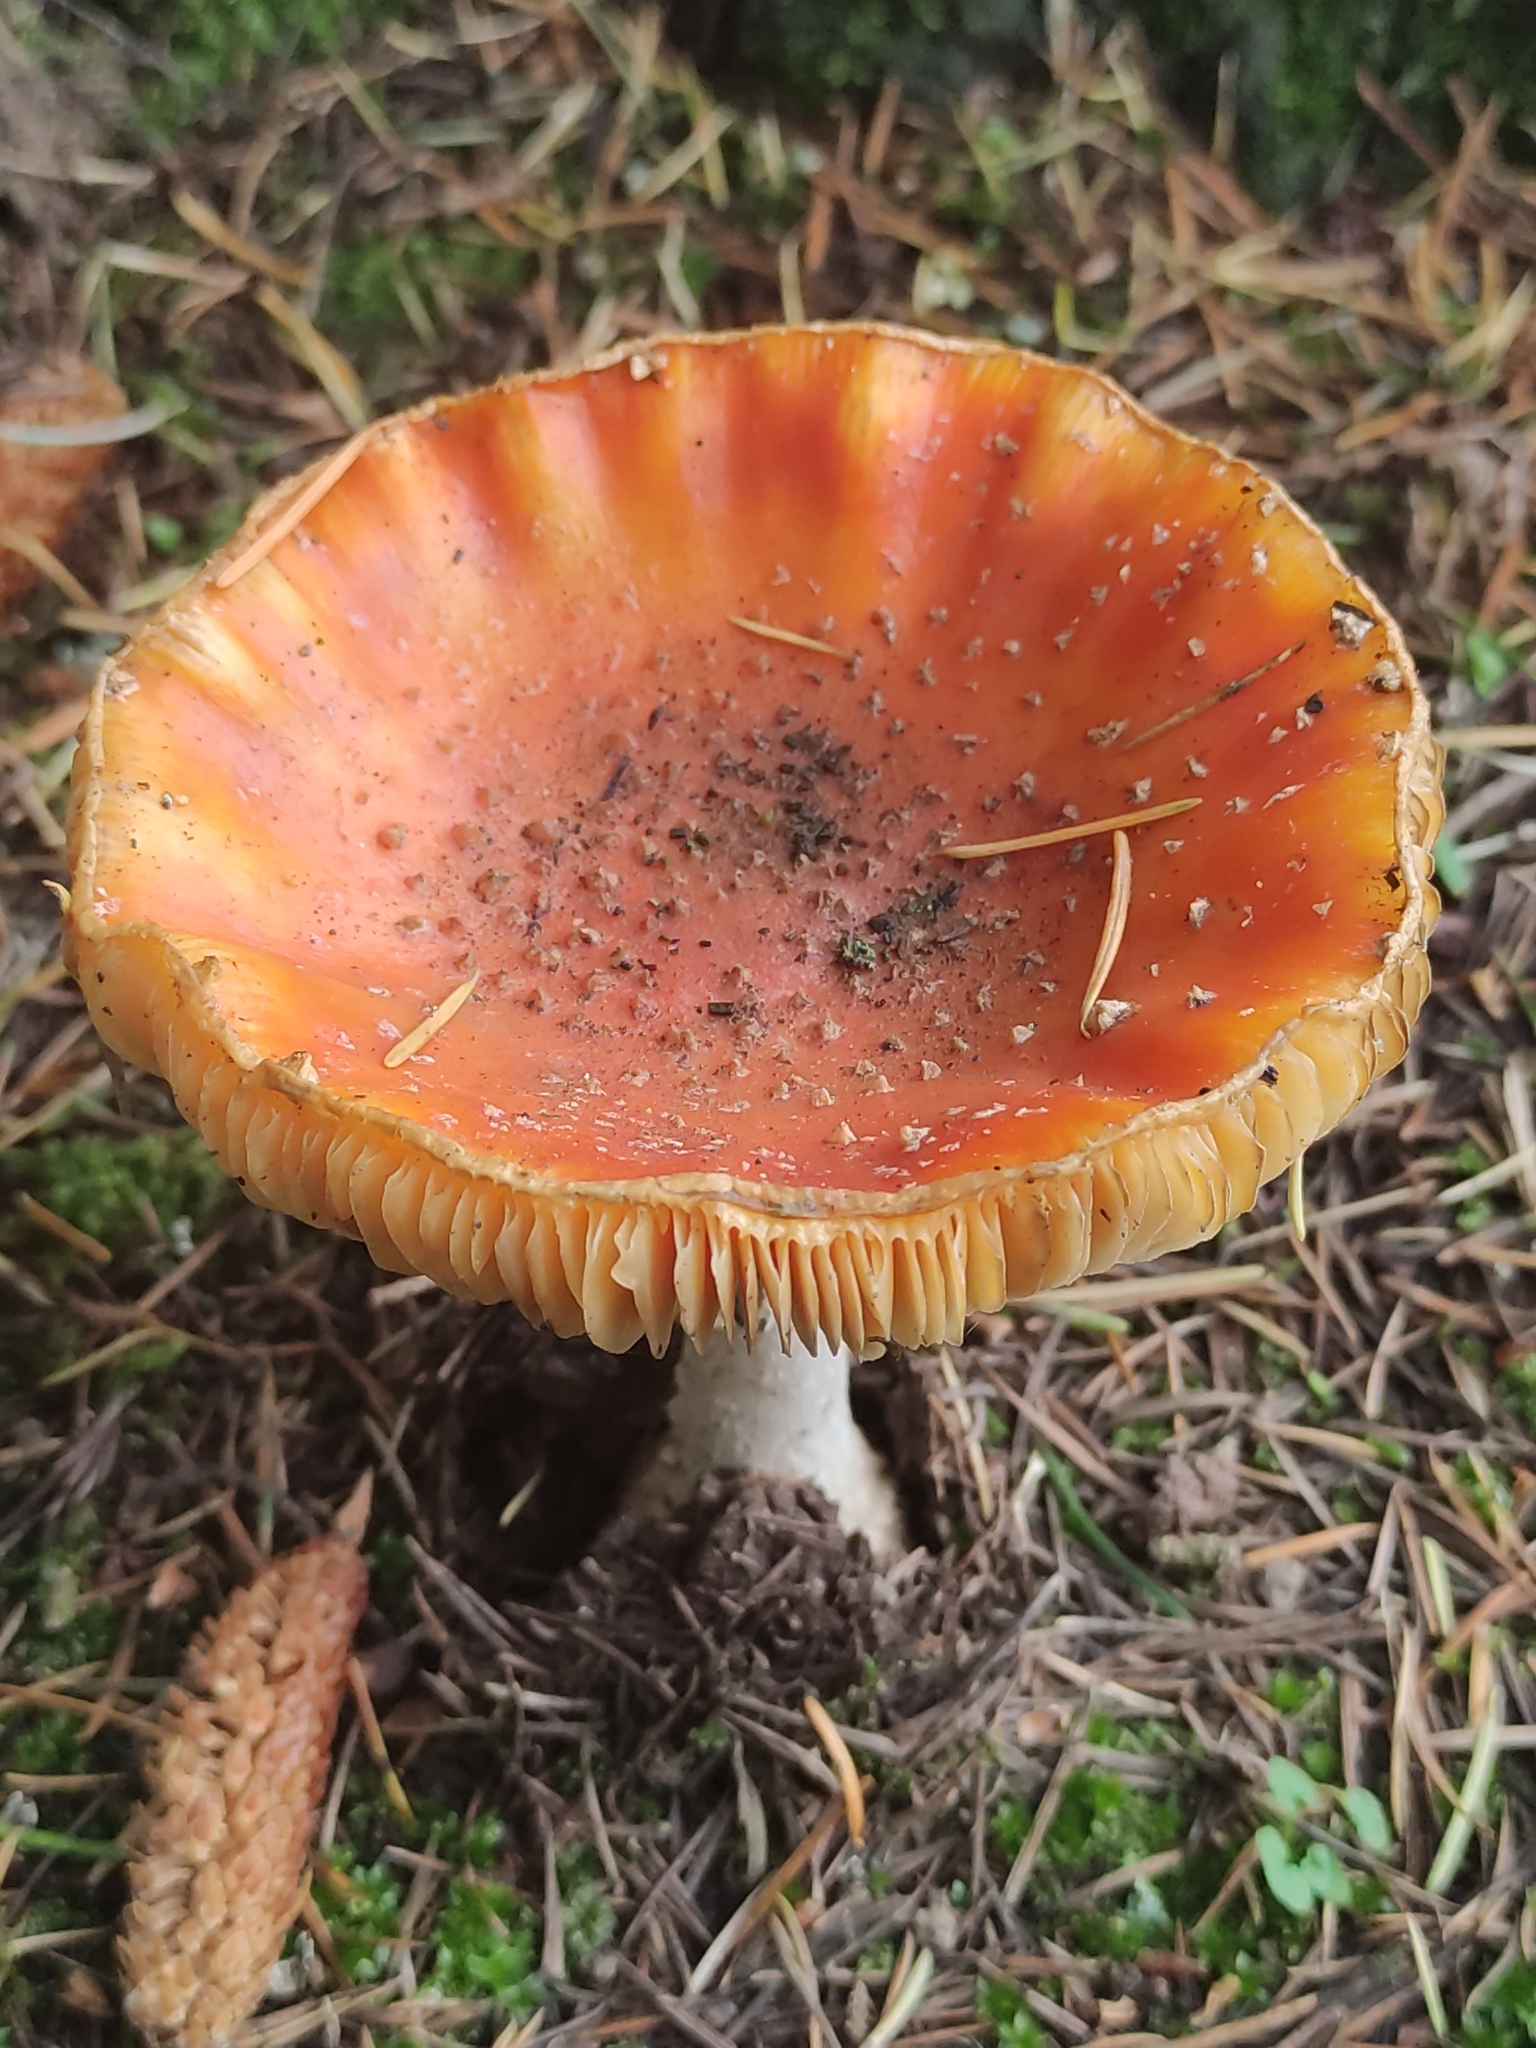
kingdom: Fungi
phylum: Basidiomycota
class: Agaricomycetes
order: Agaricales
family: Amanitaceae
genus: Amanita
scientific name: Amanita muscaria
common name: Fly agaric
